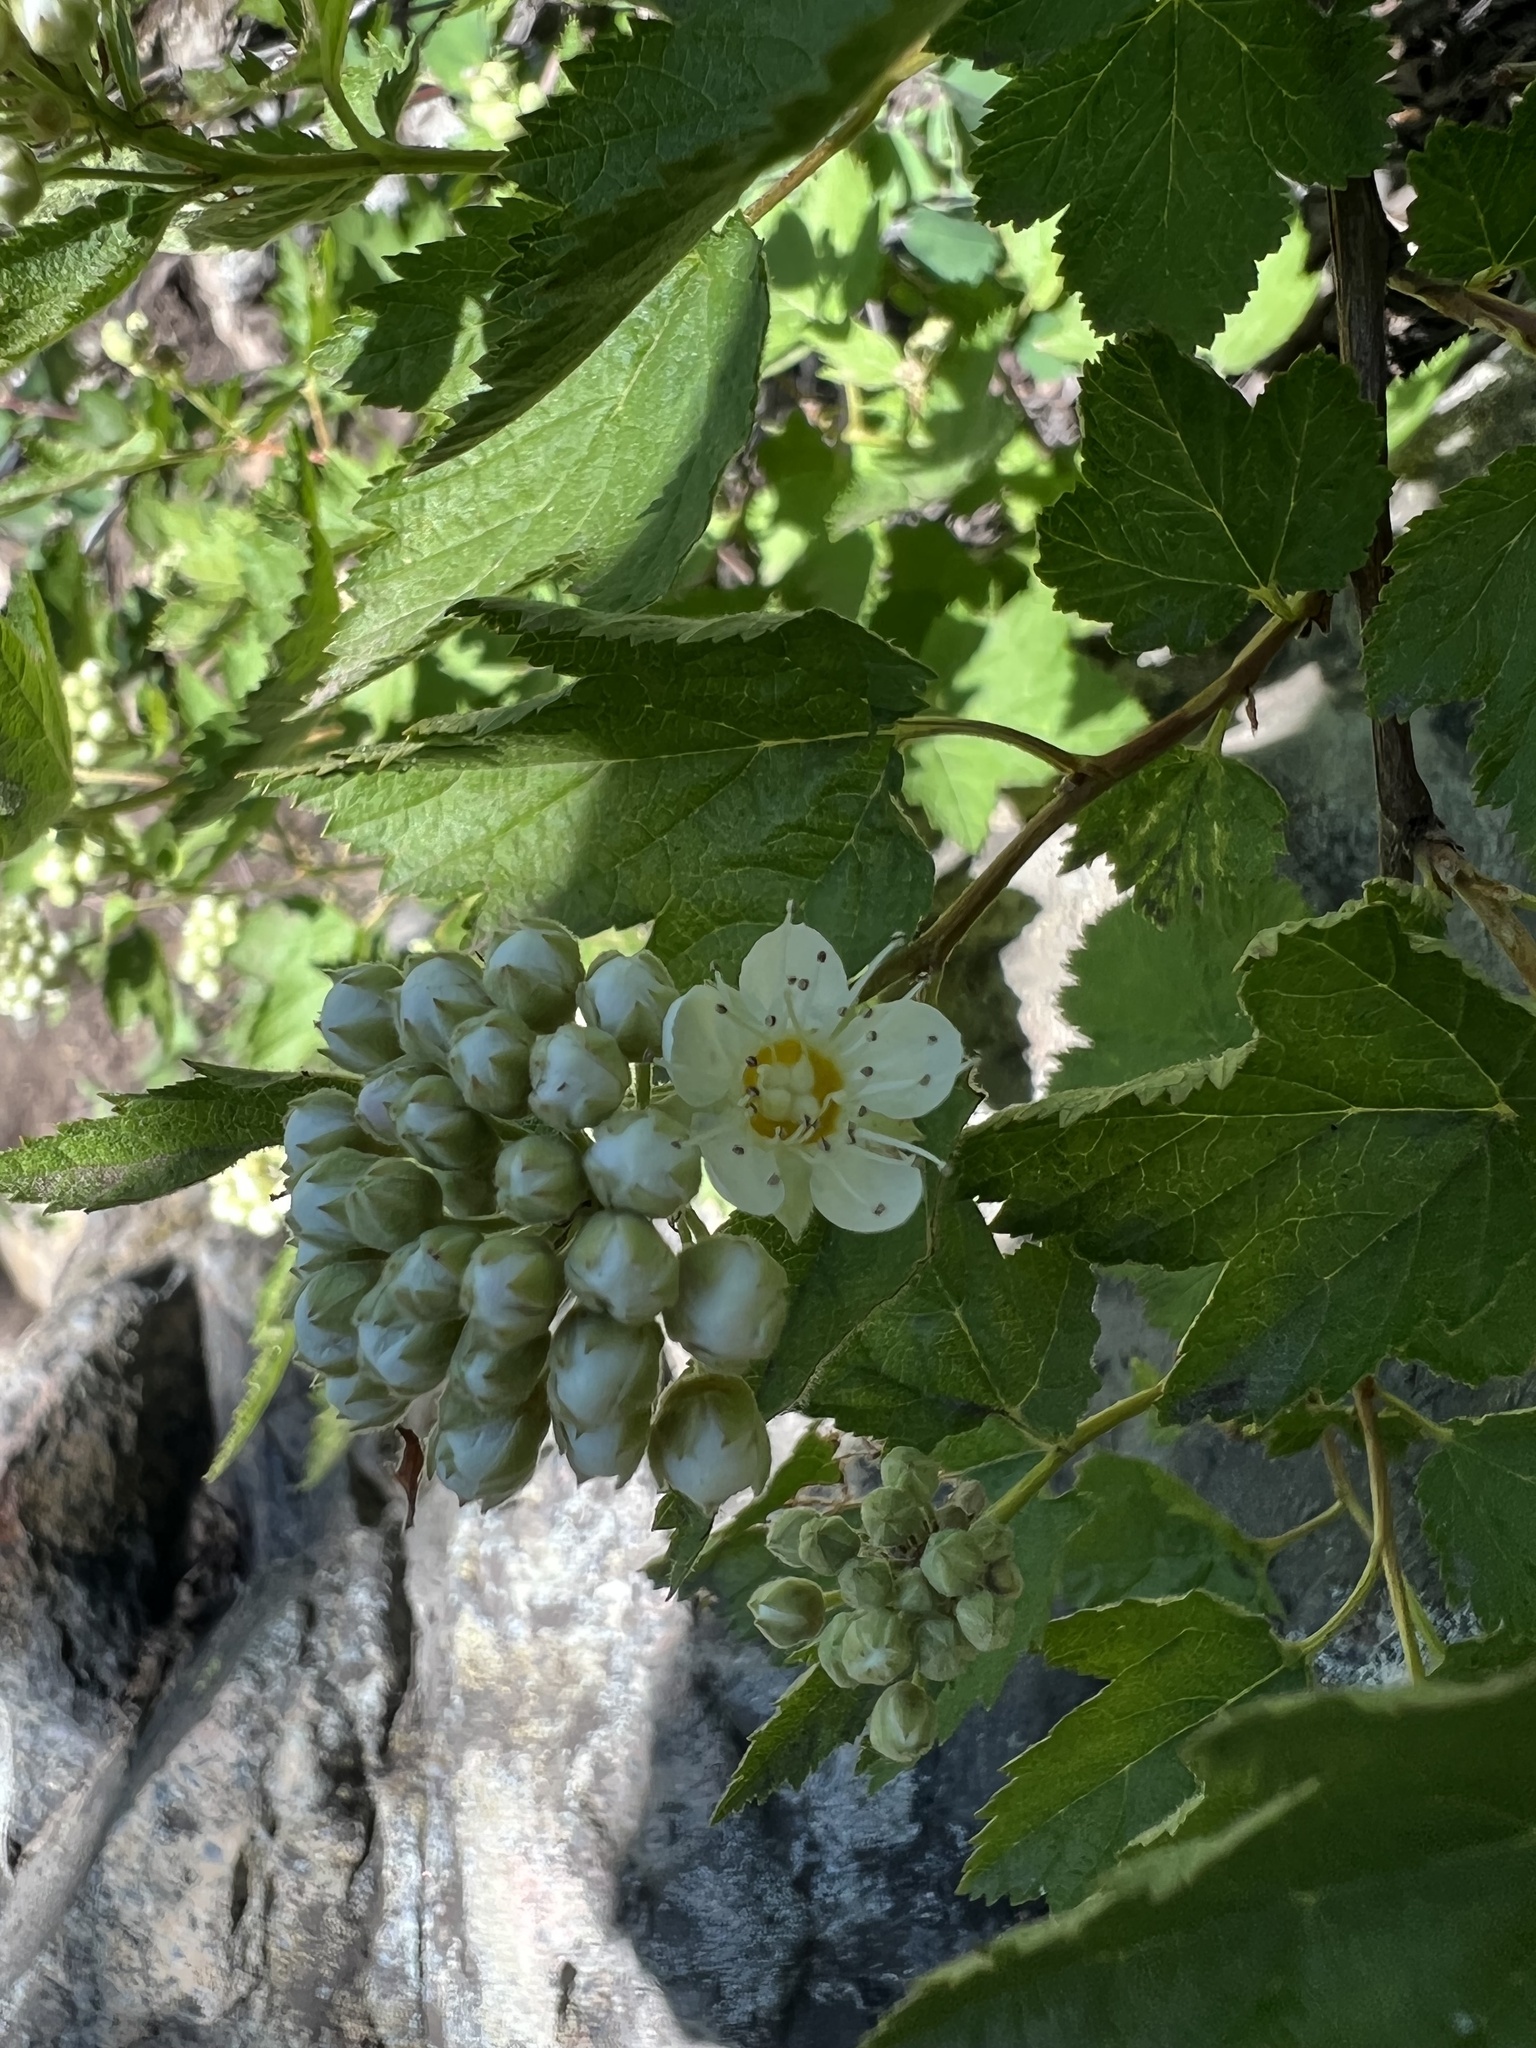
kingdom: Plantae
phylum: Tracheophyta
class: Magnoliopsida
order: Rosales
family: Rosaceae
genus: Physocarpus
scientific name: Physocarpus capitatus
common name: Pacific ninebark
